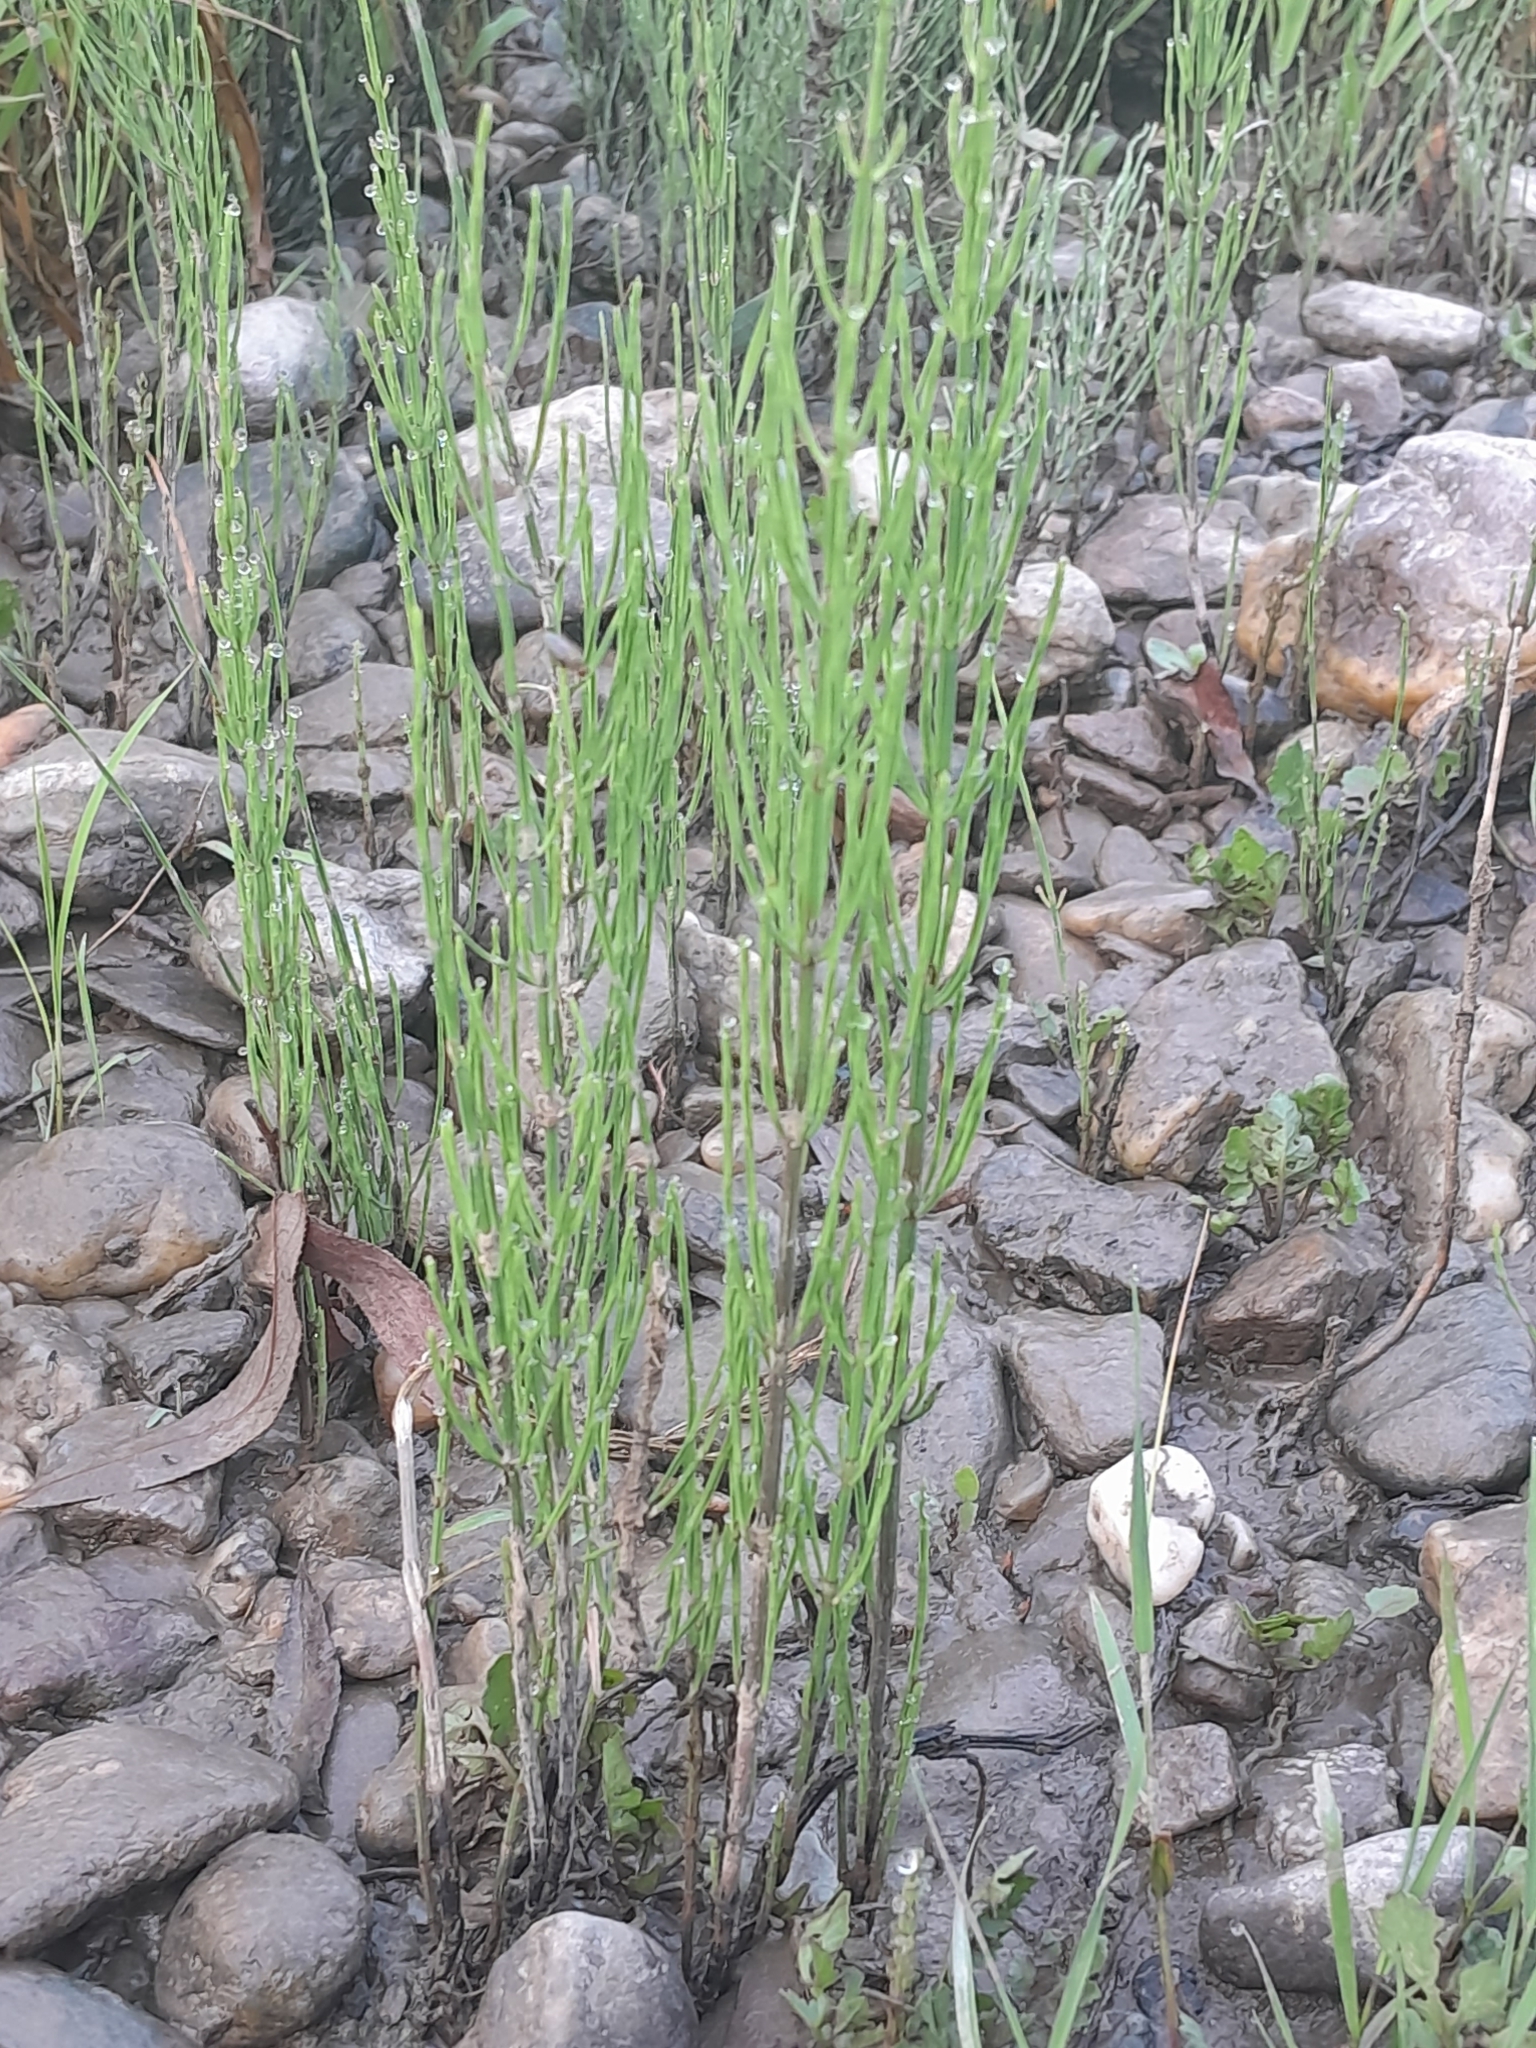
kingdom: Plantae
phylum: Tracheophyta
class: Polypodiopsida
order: Equisetales
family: Equisetaceae
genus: Equisetum
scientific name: Equisetum arvense
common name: Field horsetail
